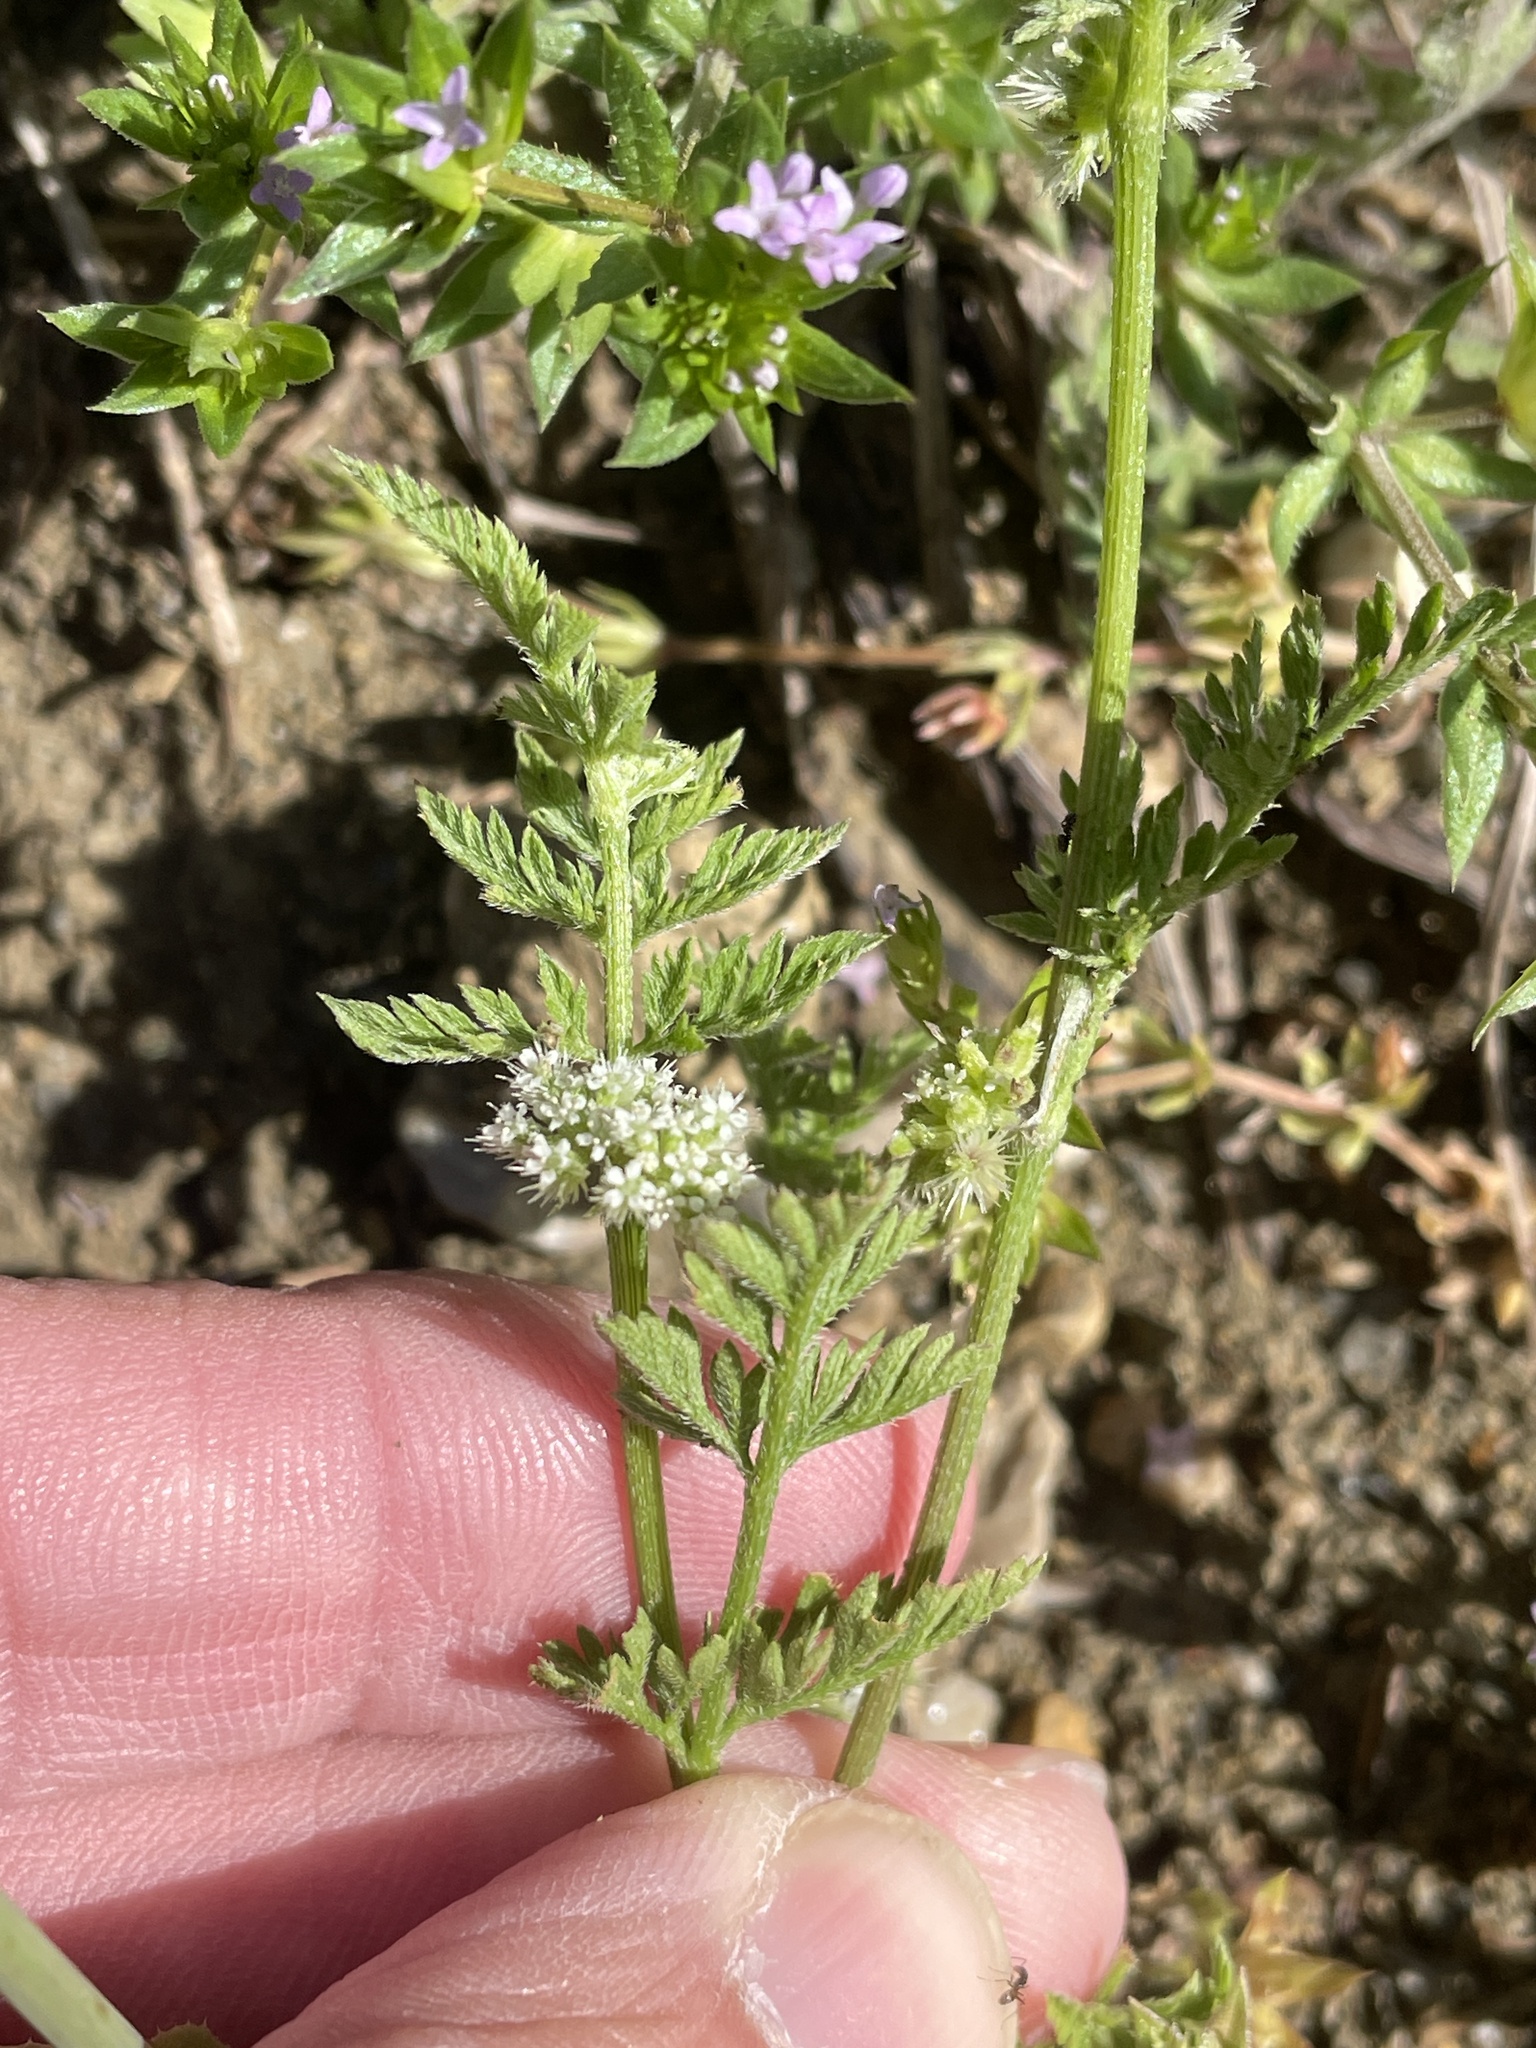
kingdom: Plantae
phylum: Tracheophyta
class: Magnoliopsida
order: Apiales
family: Apiaceae
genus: Torilis
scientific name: Torilis nodosa
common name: Knotted hedge-parsley
